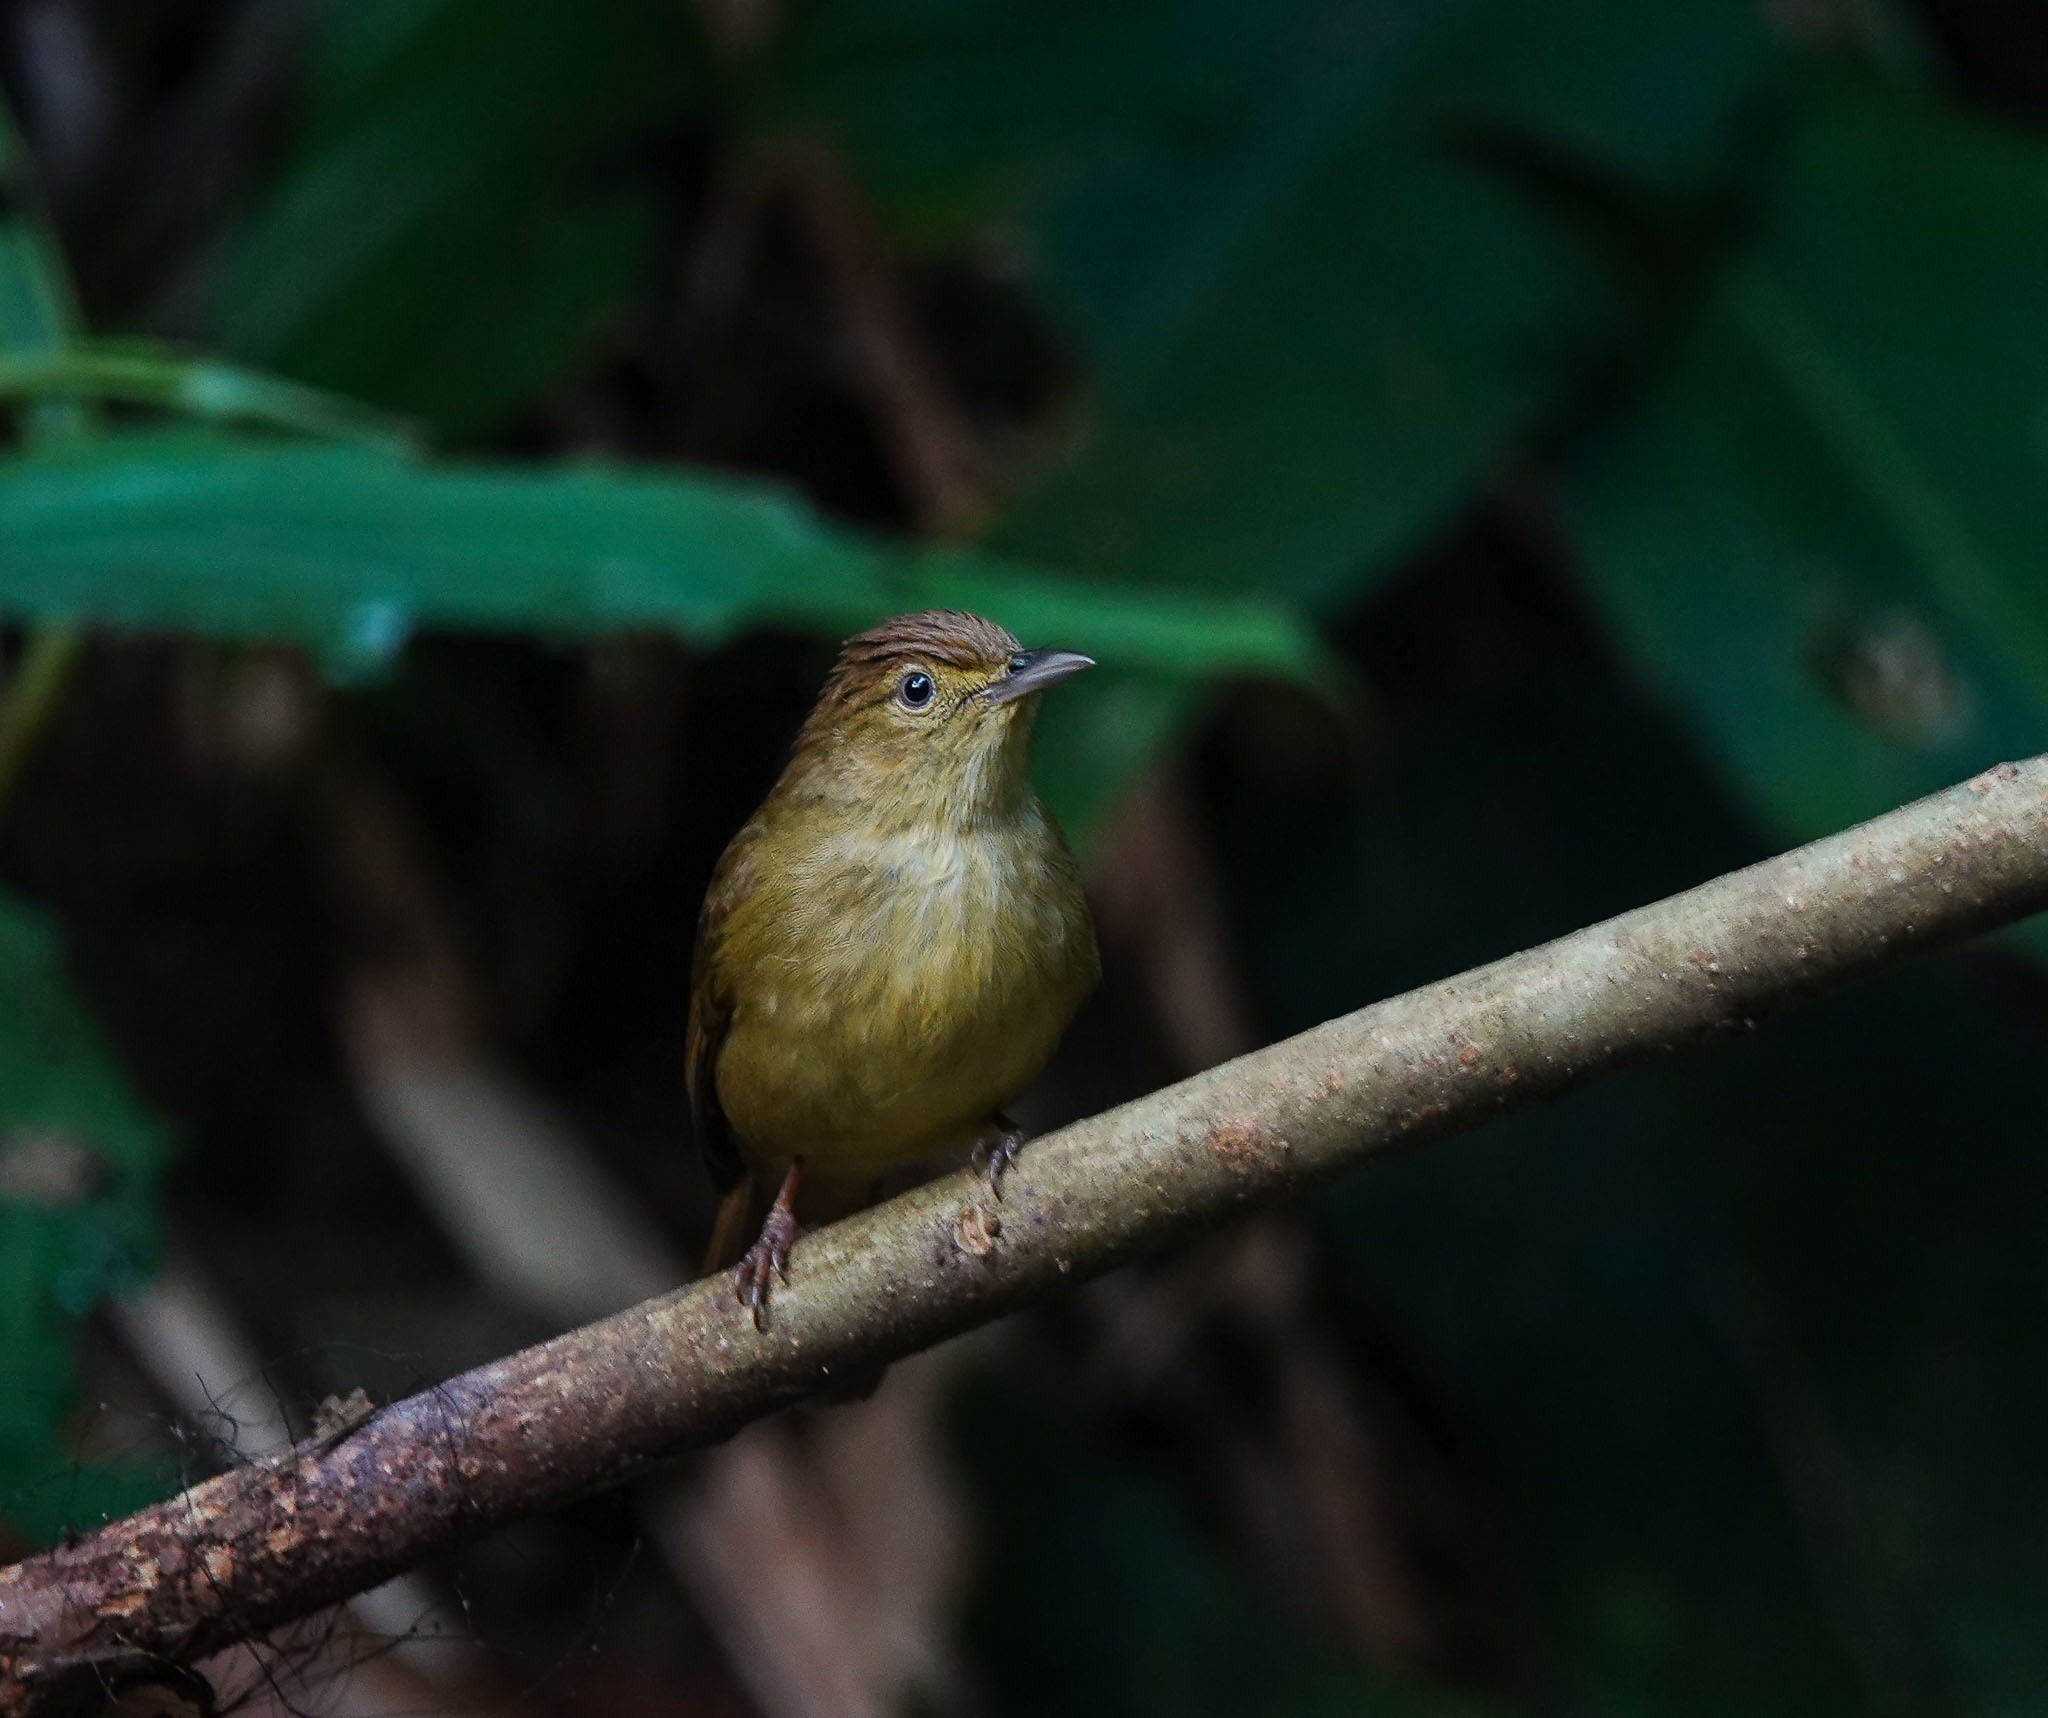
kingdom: Animalia
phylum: Chordata
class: Aves
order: Passeriformes
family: Pycnonotidae
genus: Iole
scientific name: Iole virescens
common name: Olive bulbul
